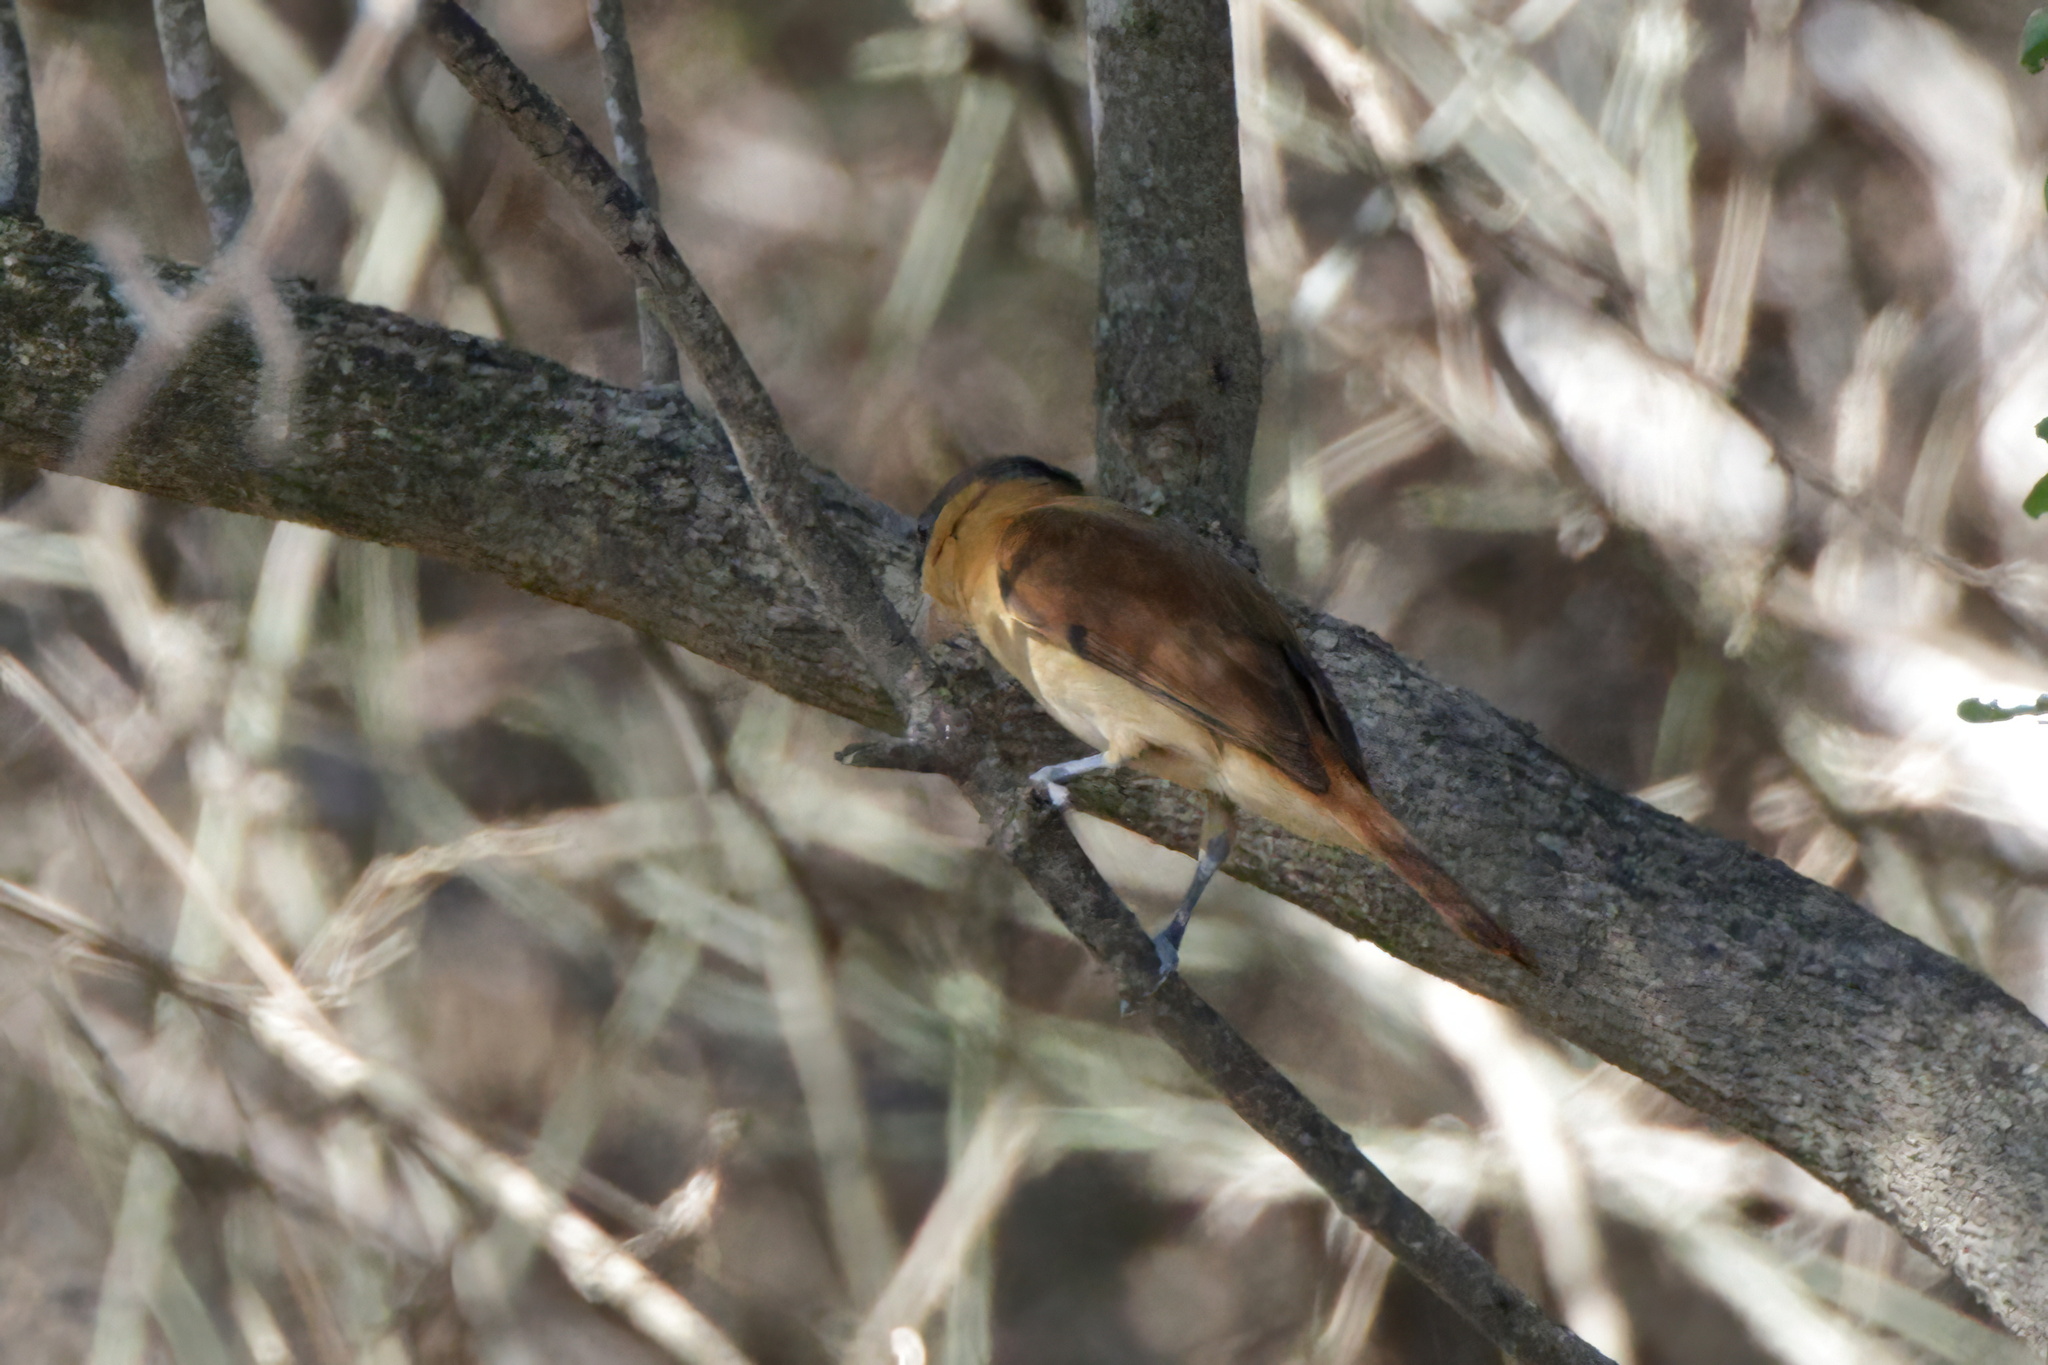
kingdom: Animalia
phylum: Chordata
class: Aves
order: Passeriformes
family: Cotingidae
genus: Pachyramphus
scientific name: Pachyramphus aglaiae
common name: Rose-throated becard
